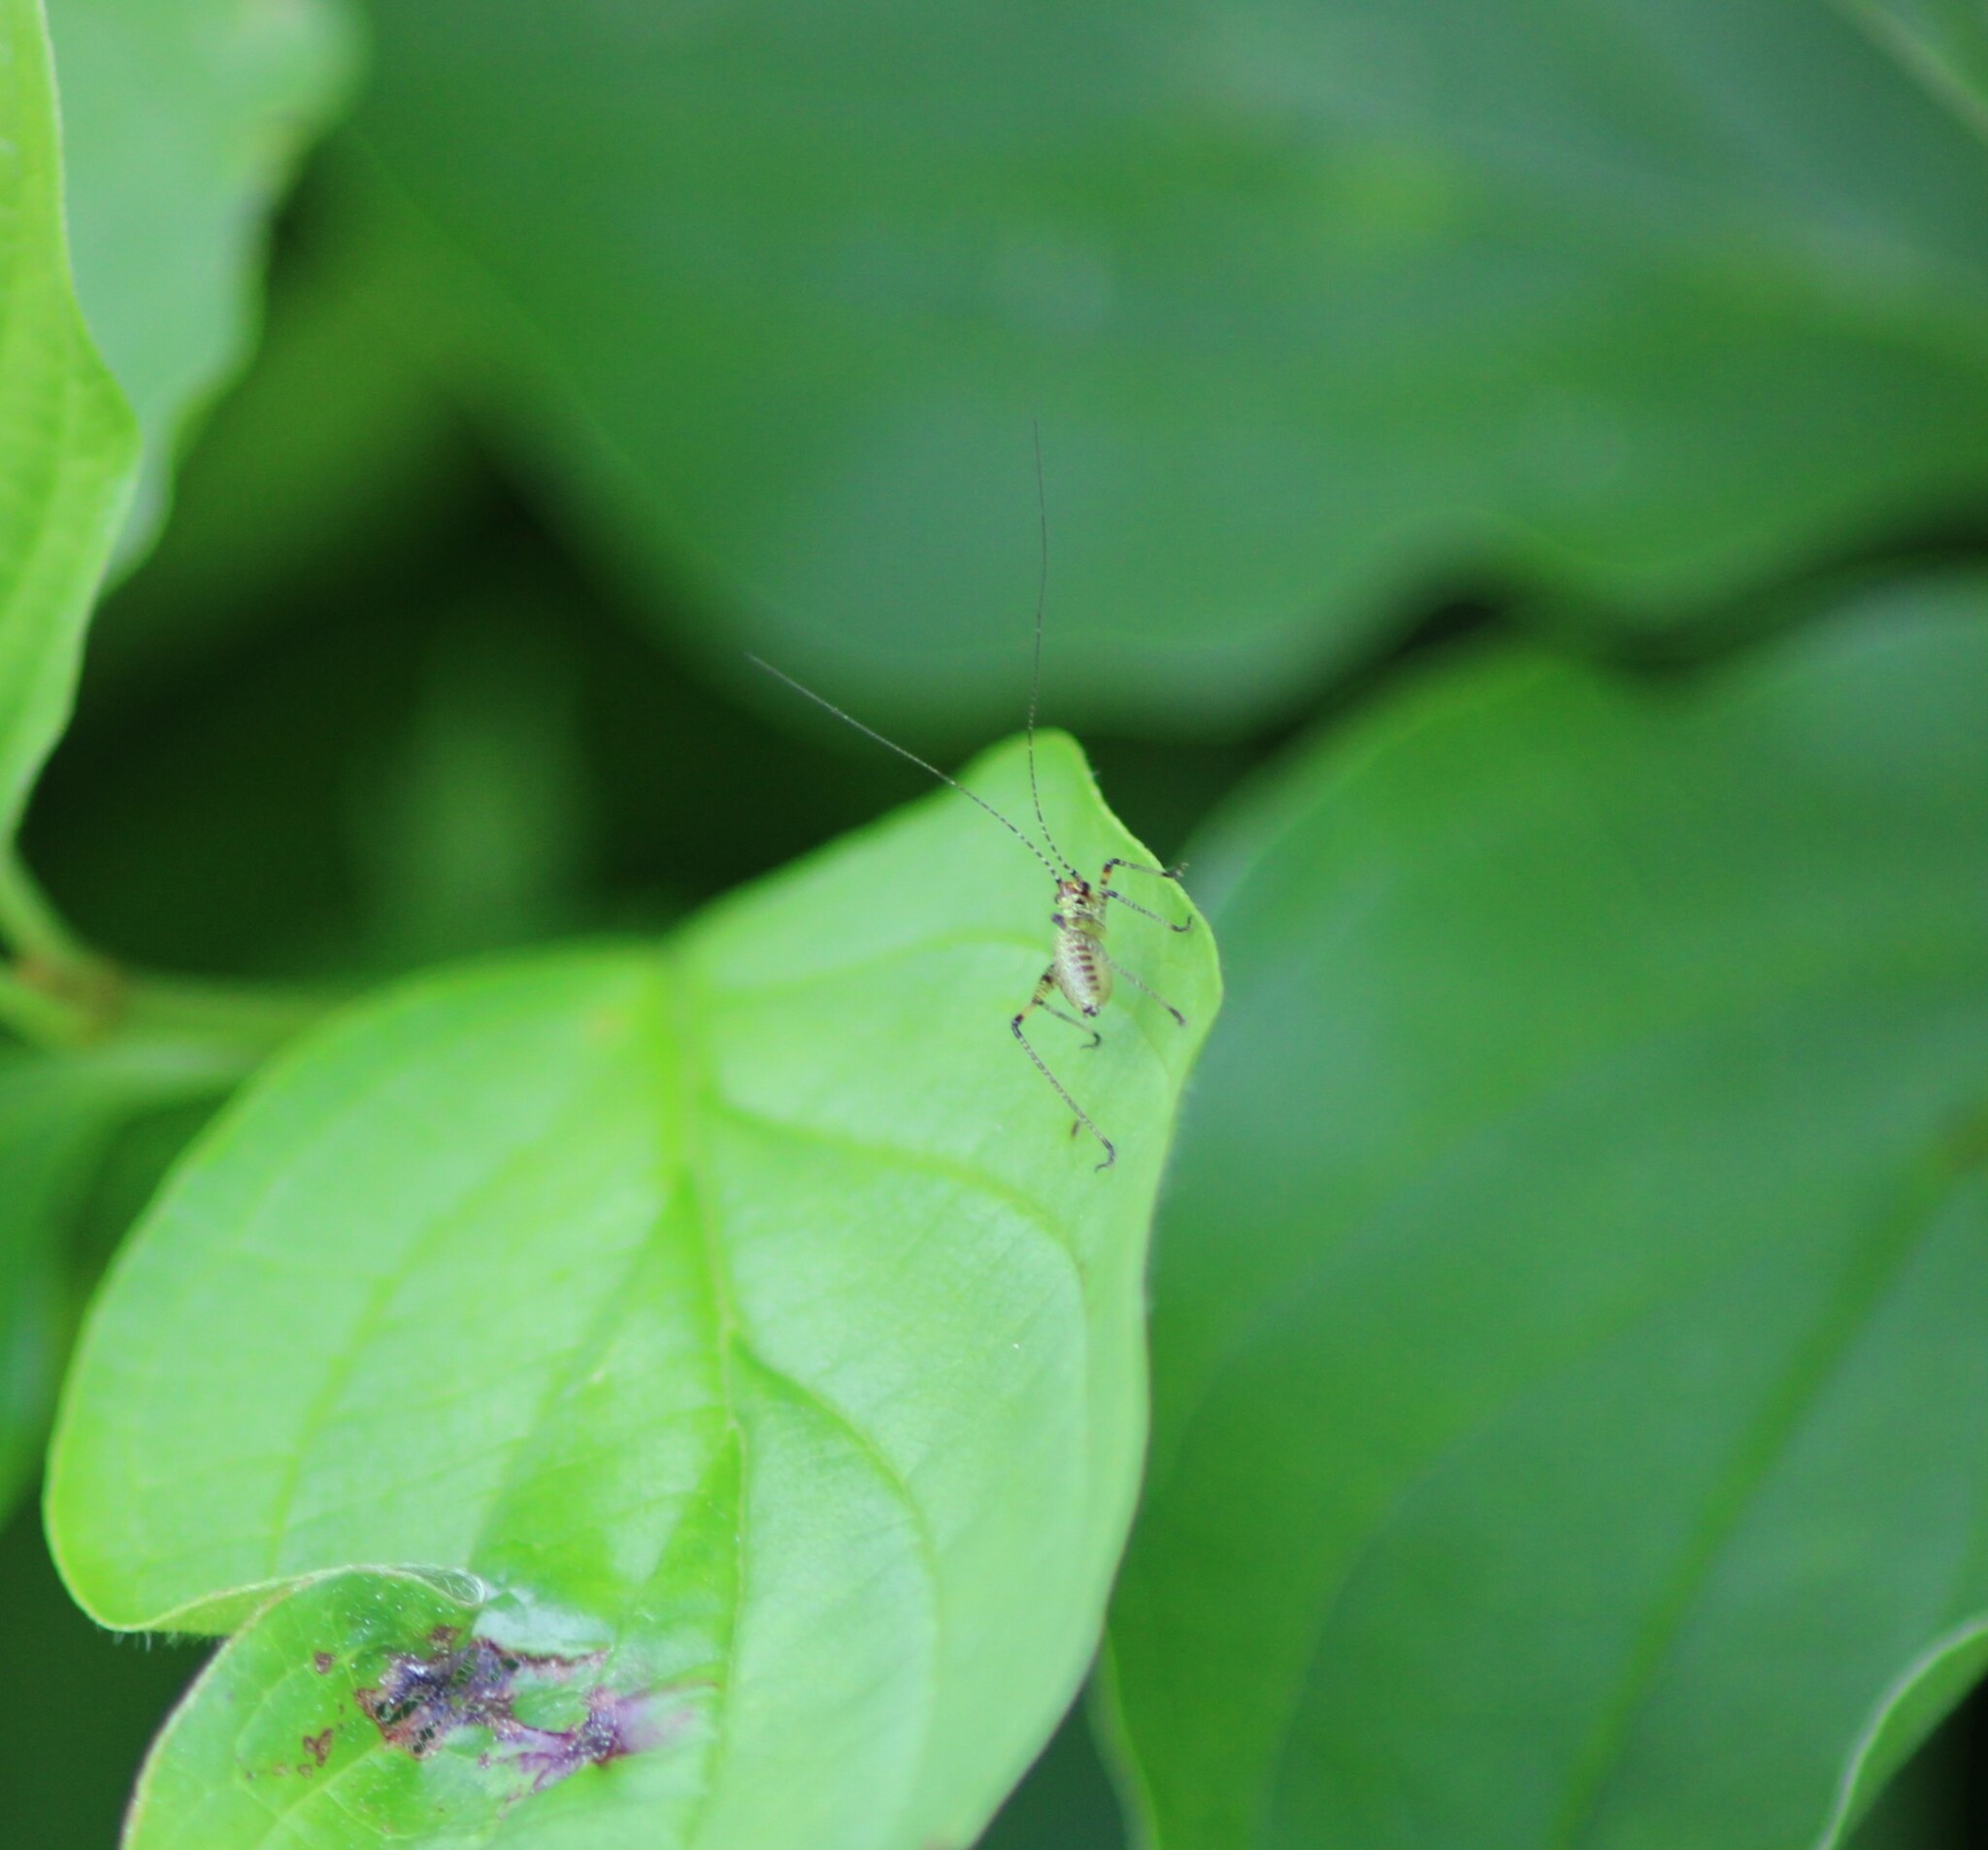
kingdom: Animalia
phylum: Arthropoda
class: Insecta
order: Orthoptera
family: Tettigoniidae
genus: Phaneroptera
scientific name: Phaneroptera nana
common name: Southern sickle bush-cricket
